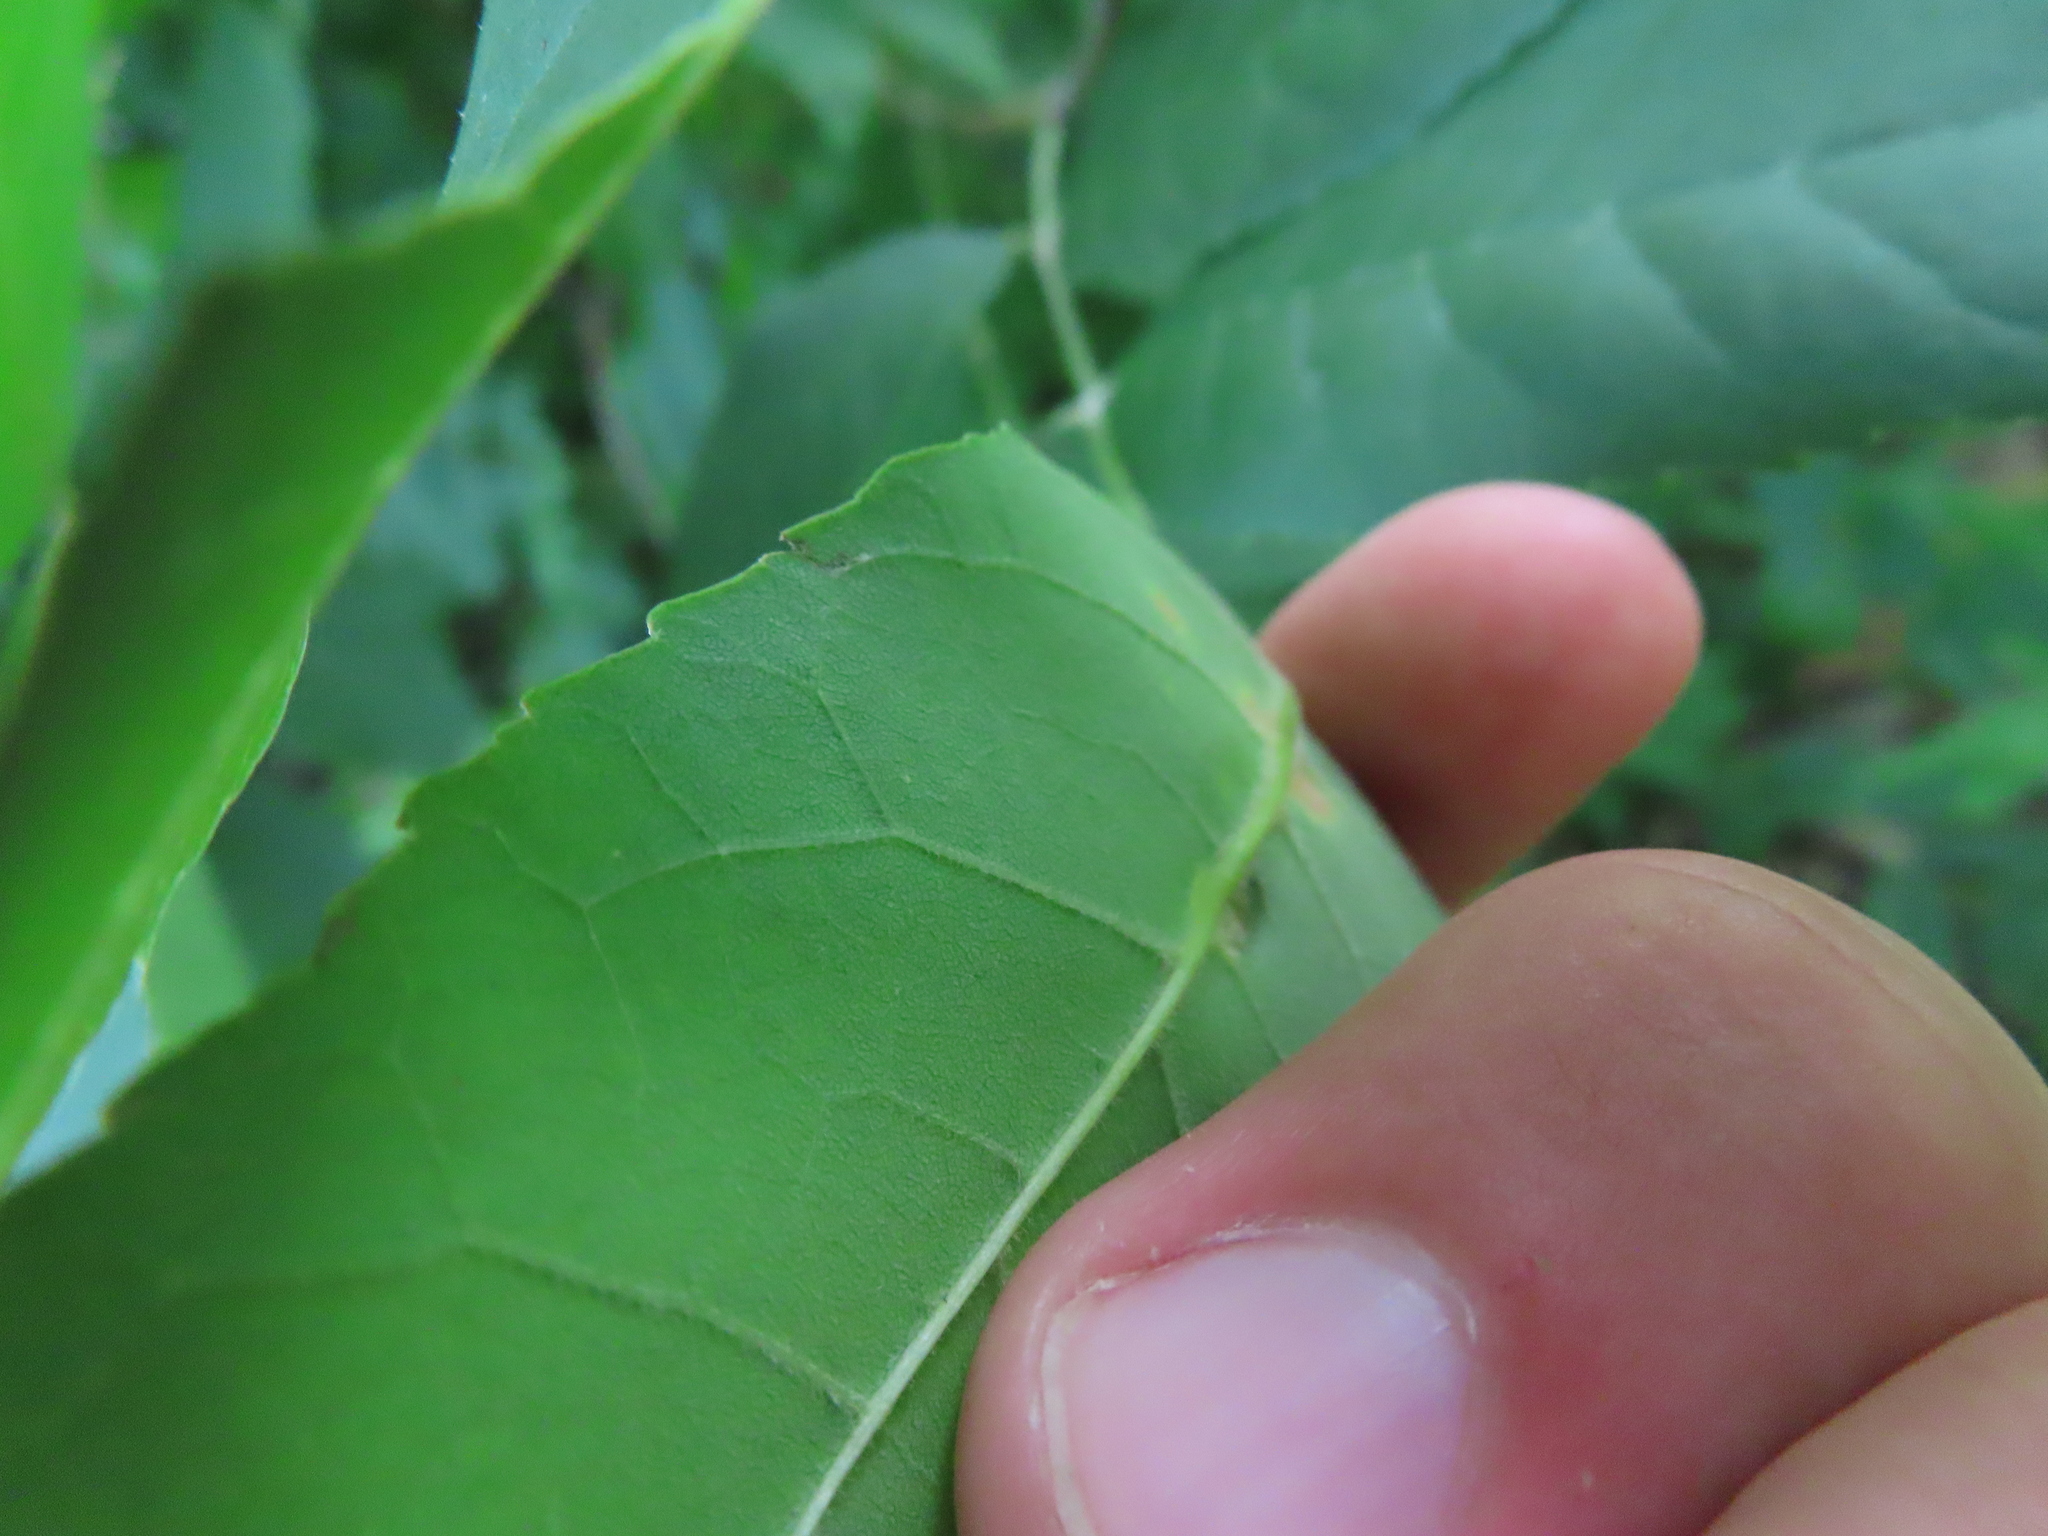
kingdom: Animalia
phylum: Arthropoda
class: Insecta
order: Diptera
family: Cecidomyiidae
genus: Dasineura
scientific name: Dasineura pellex
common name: Ash bullet gall midge
